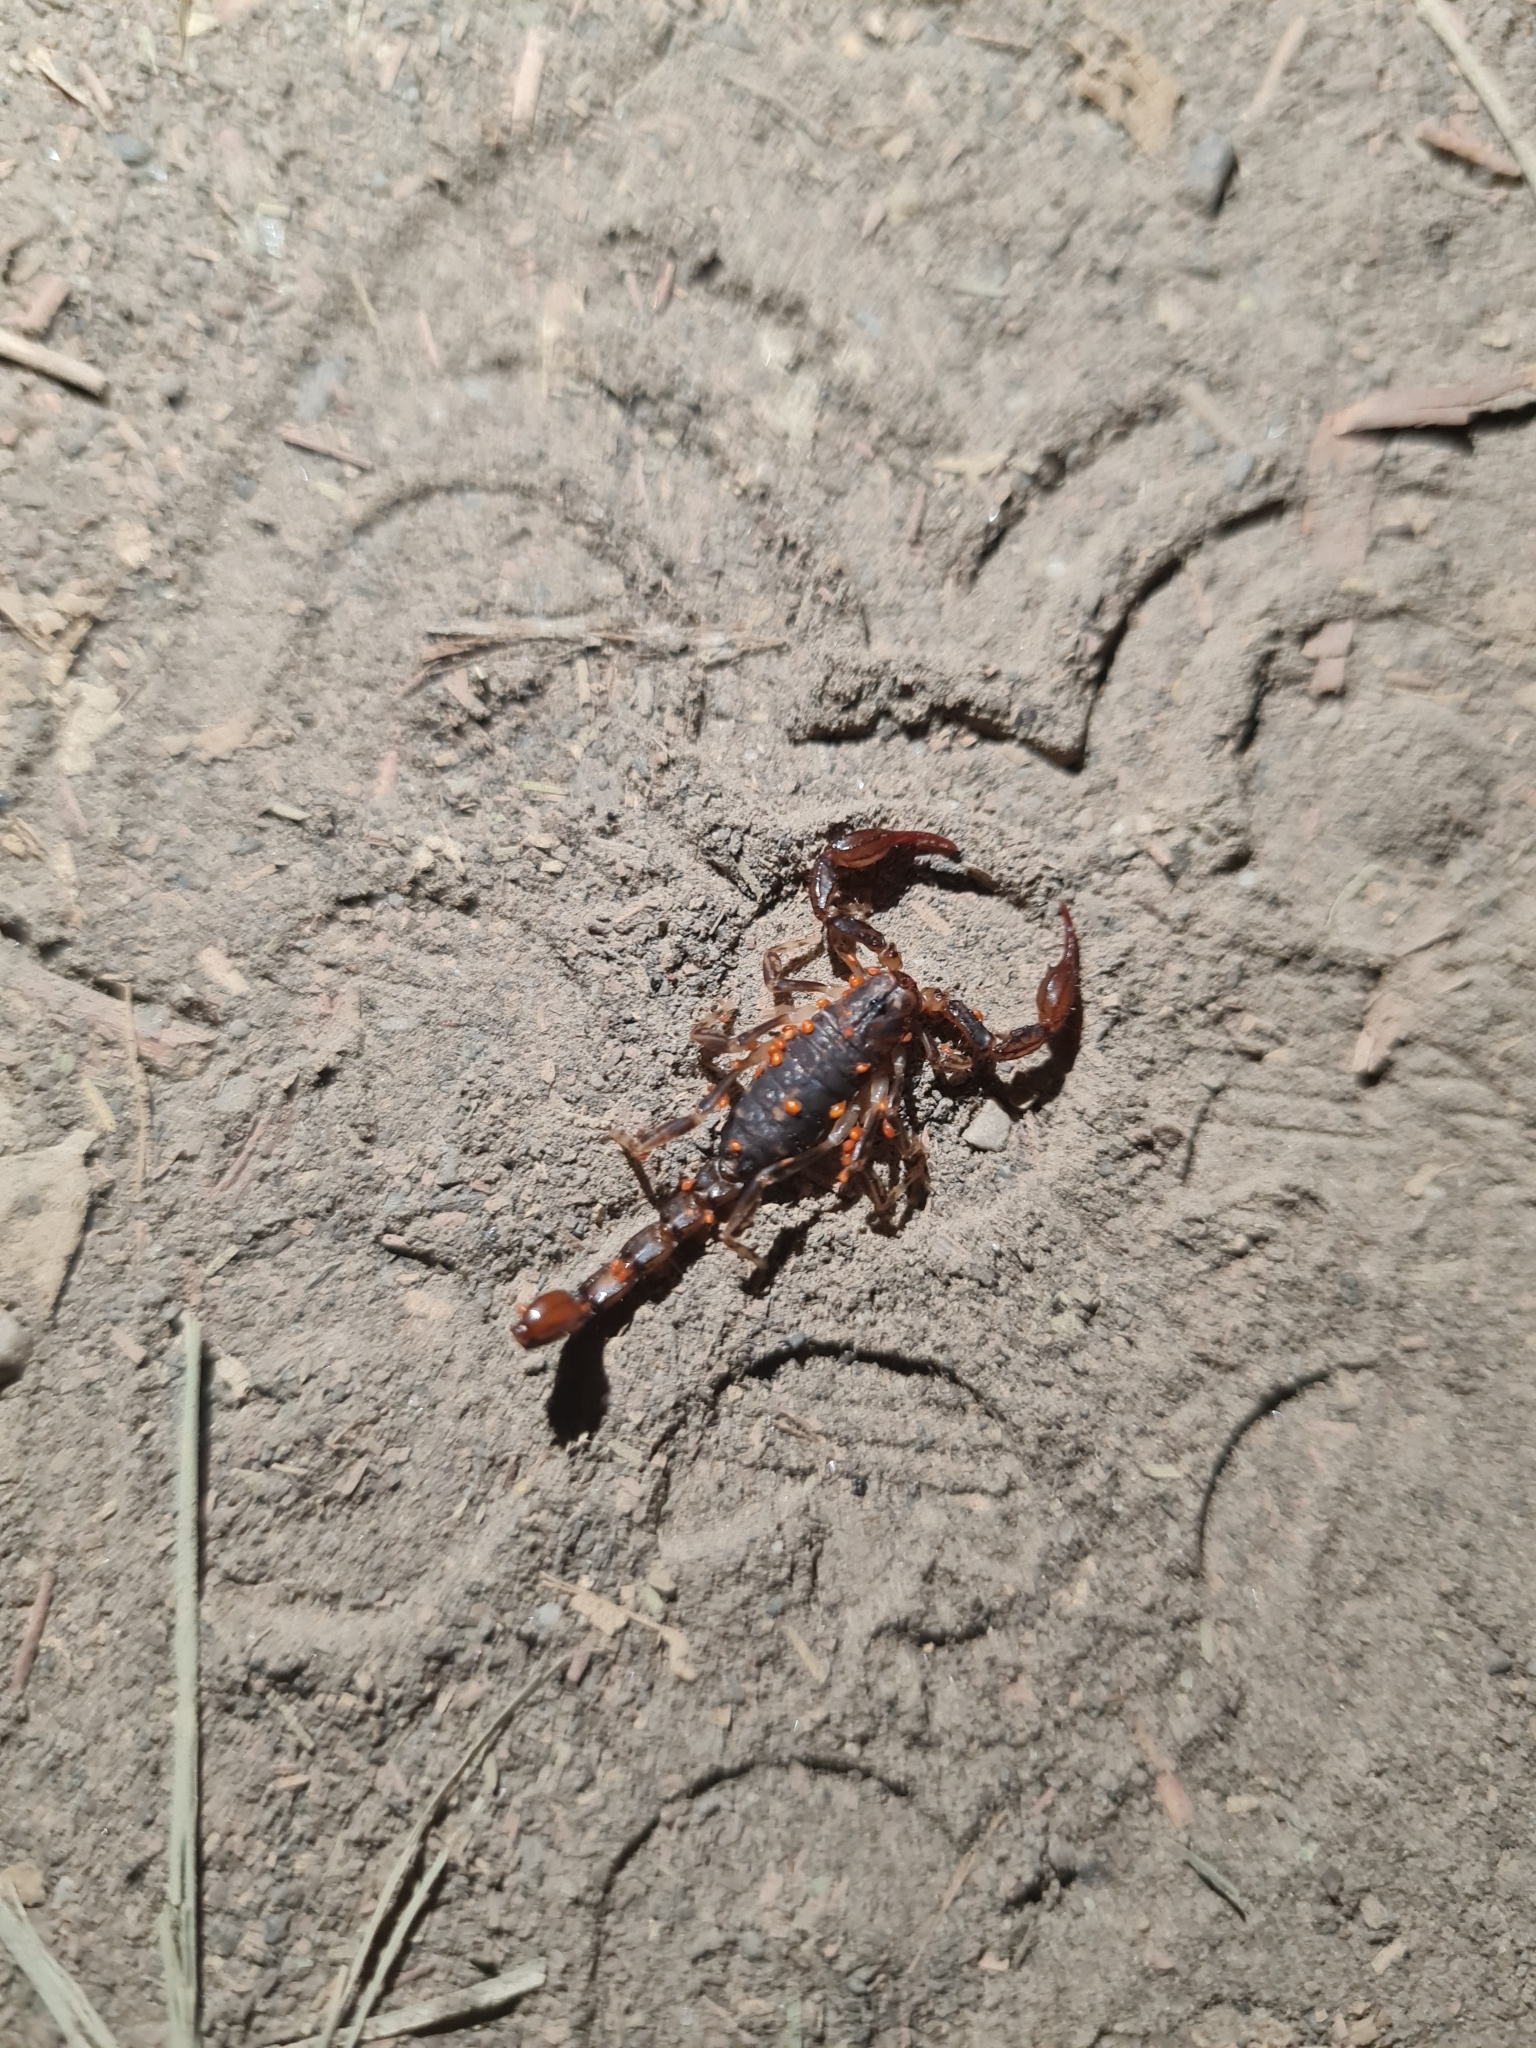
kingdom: Animalia
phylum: Arthropoda
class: Arachnida
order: Scorpiones
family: Bothriuridae
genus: Cercophonius
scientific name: Cercophonius squama
